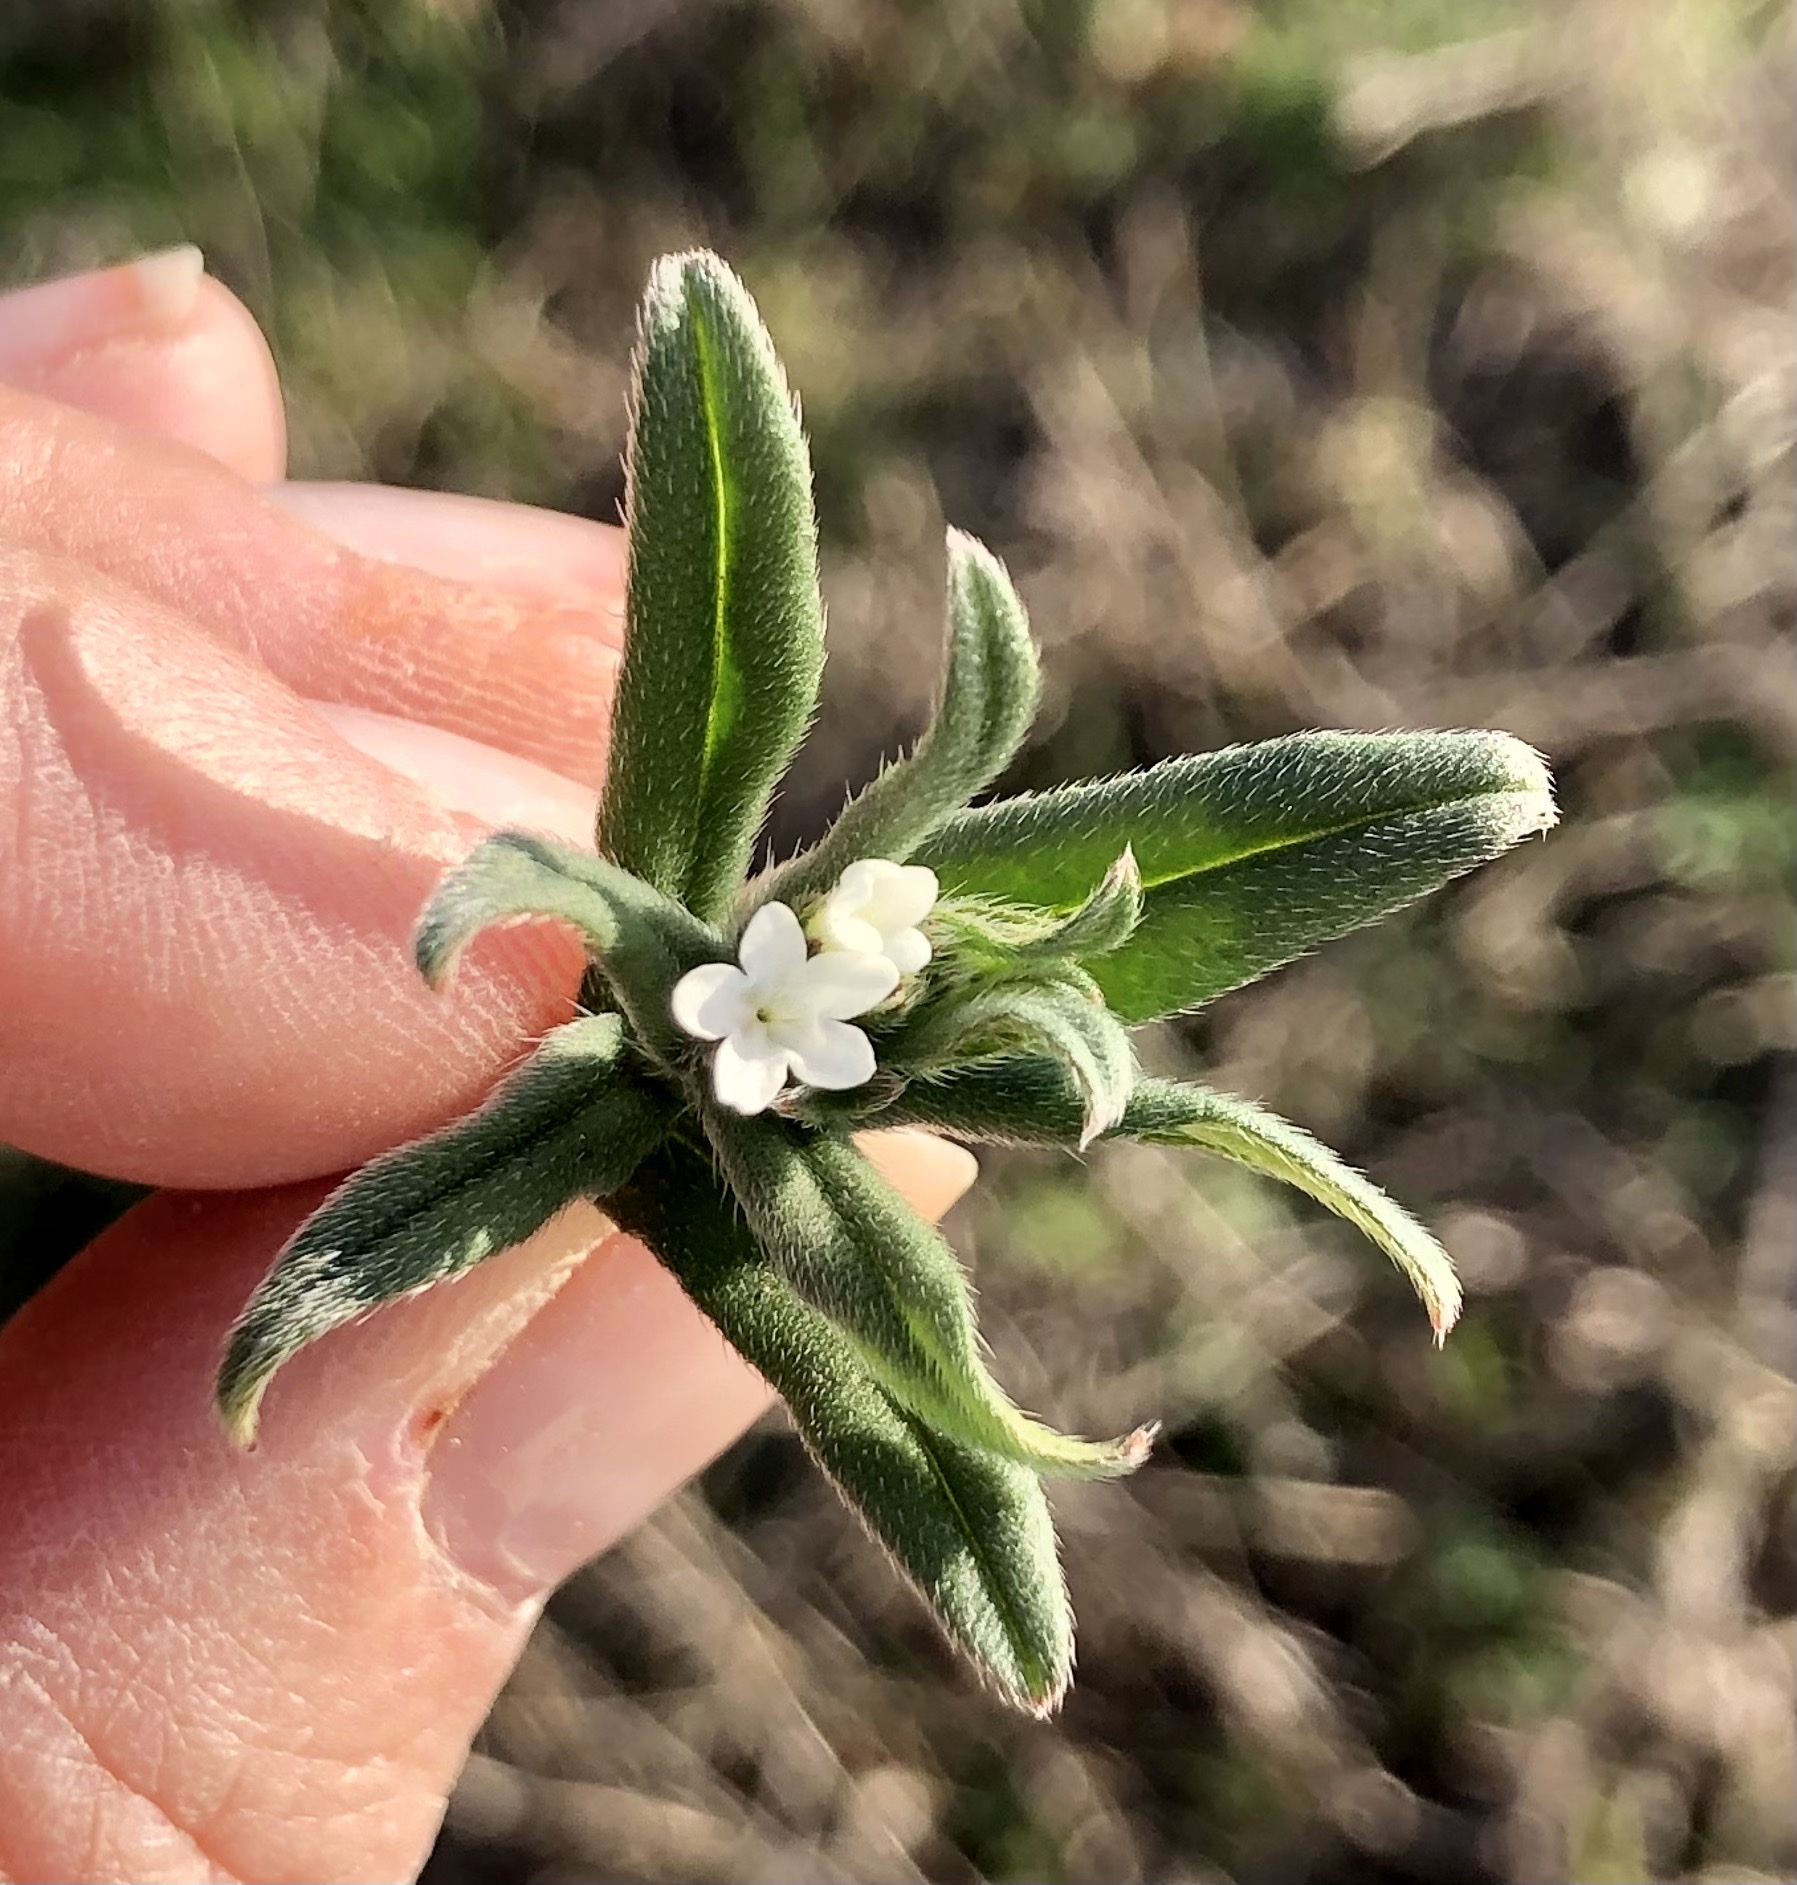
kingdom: Plantae
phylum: Tracheophyta
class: Magnoliopsida
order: Boraginales
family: Boraginaceae
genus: Buglossoides
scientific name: Buglossoides arvensis
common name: Corn gromwell
